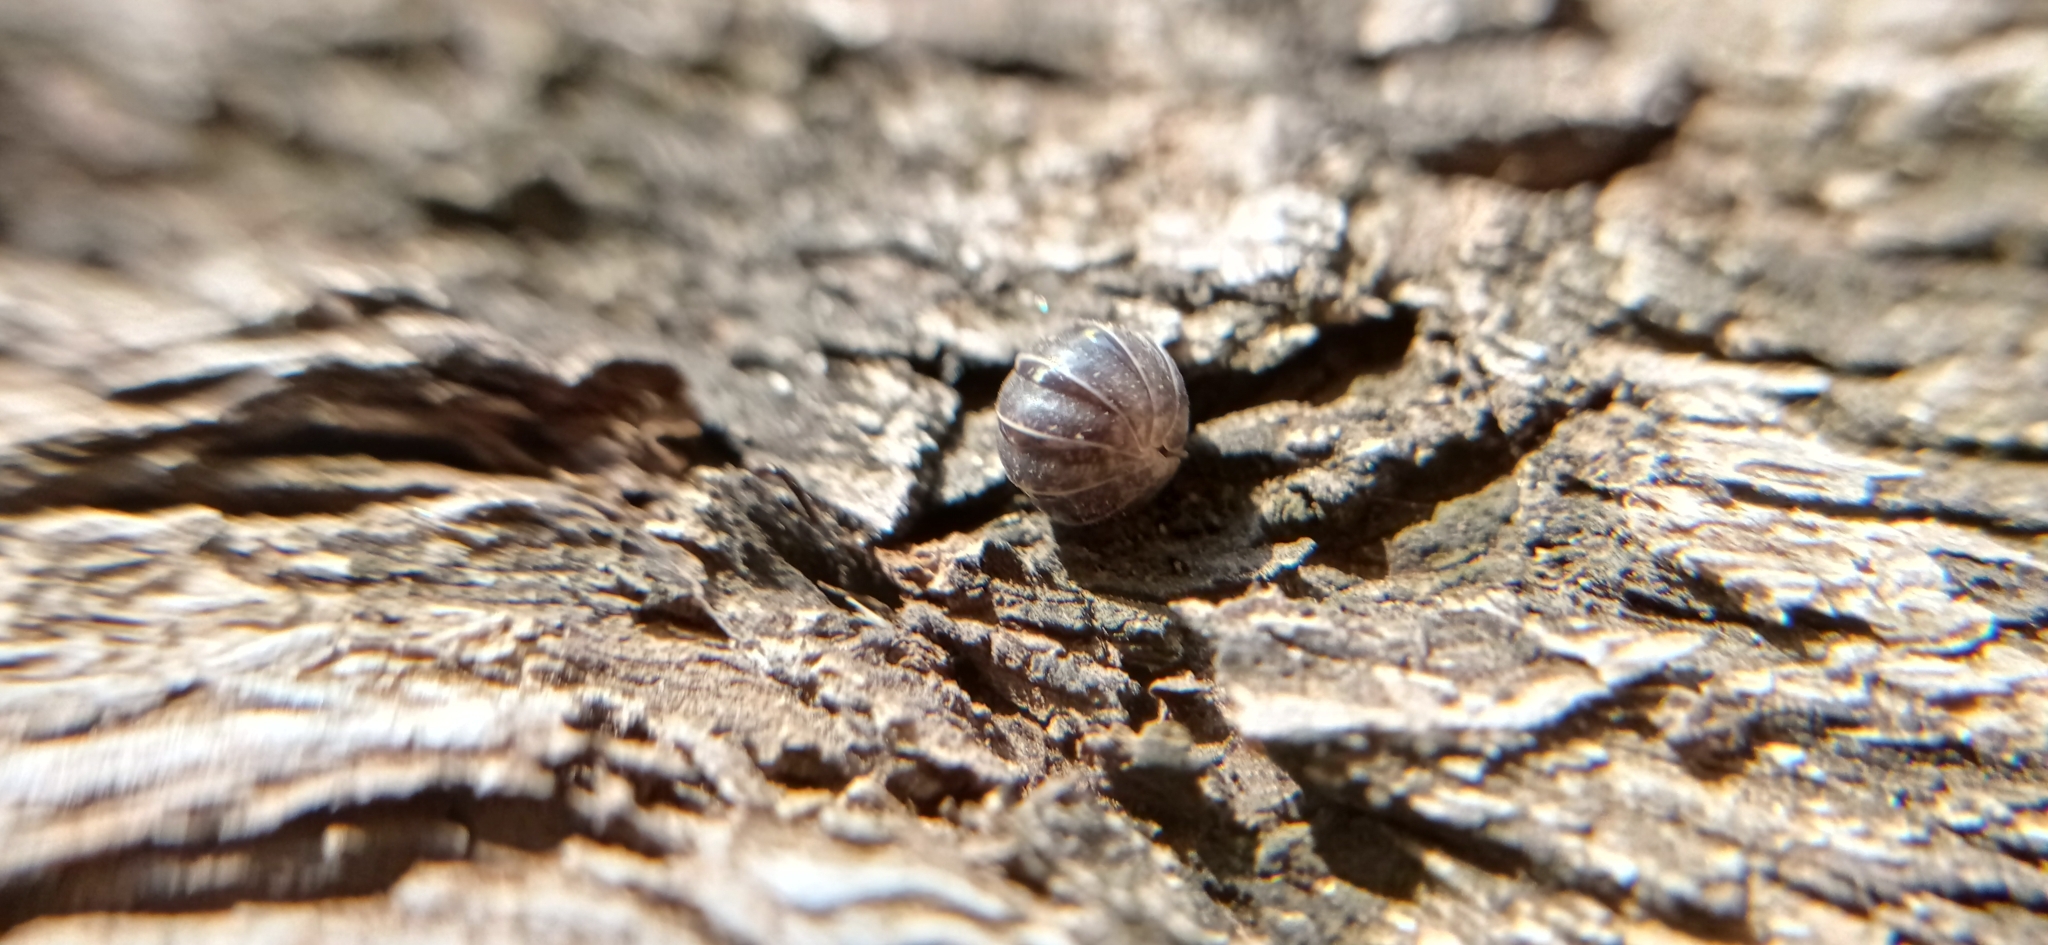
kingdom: Animalia
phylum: Arthropoda
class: Malacostraca
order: Isopoda
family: Armadillidiidae
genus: Armadillidium
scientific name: Armadillidium vulgare
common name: Common pill woodlouse
